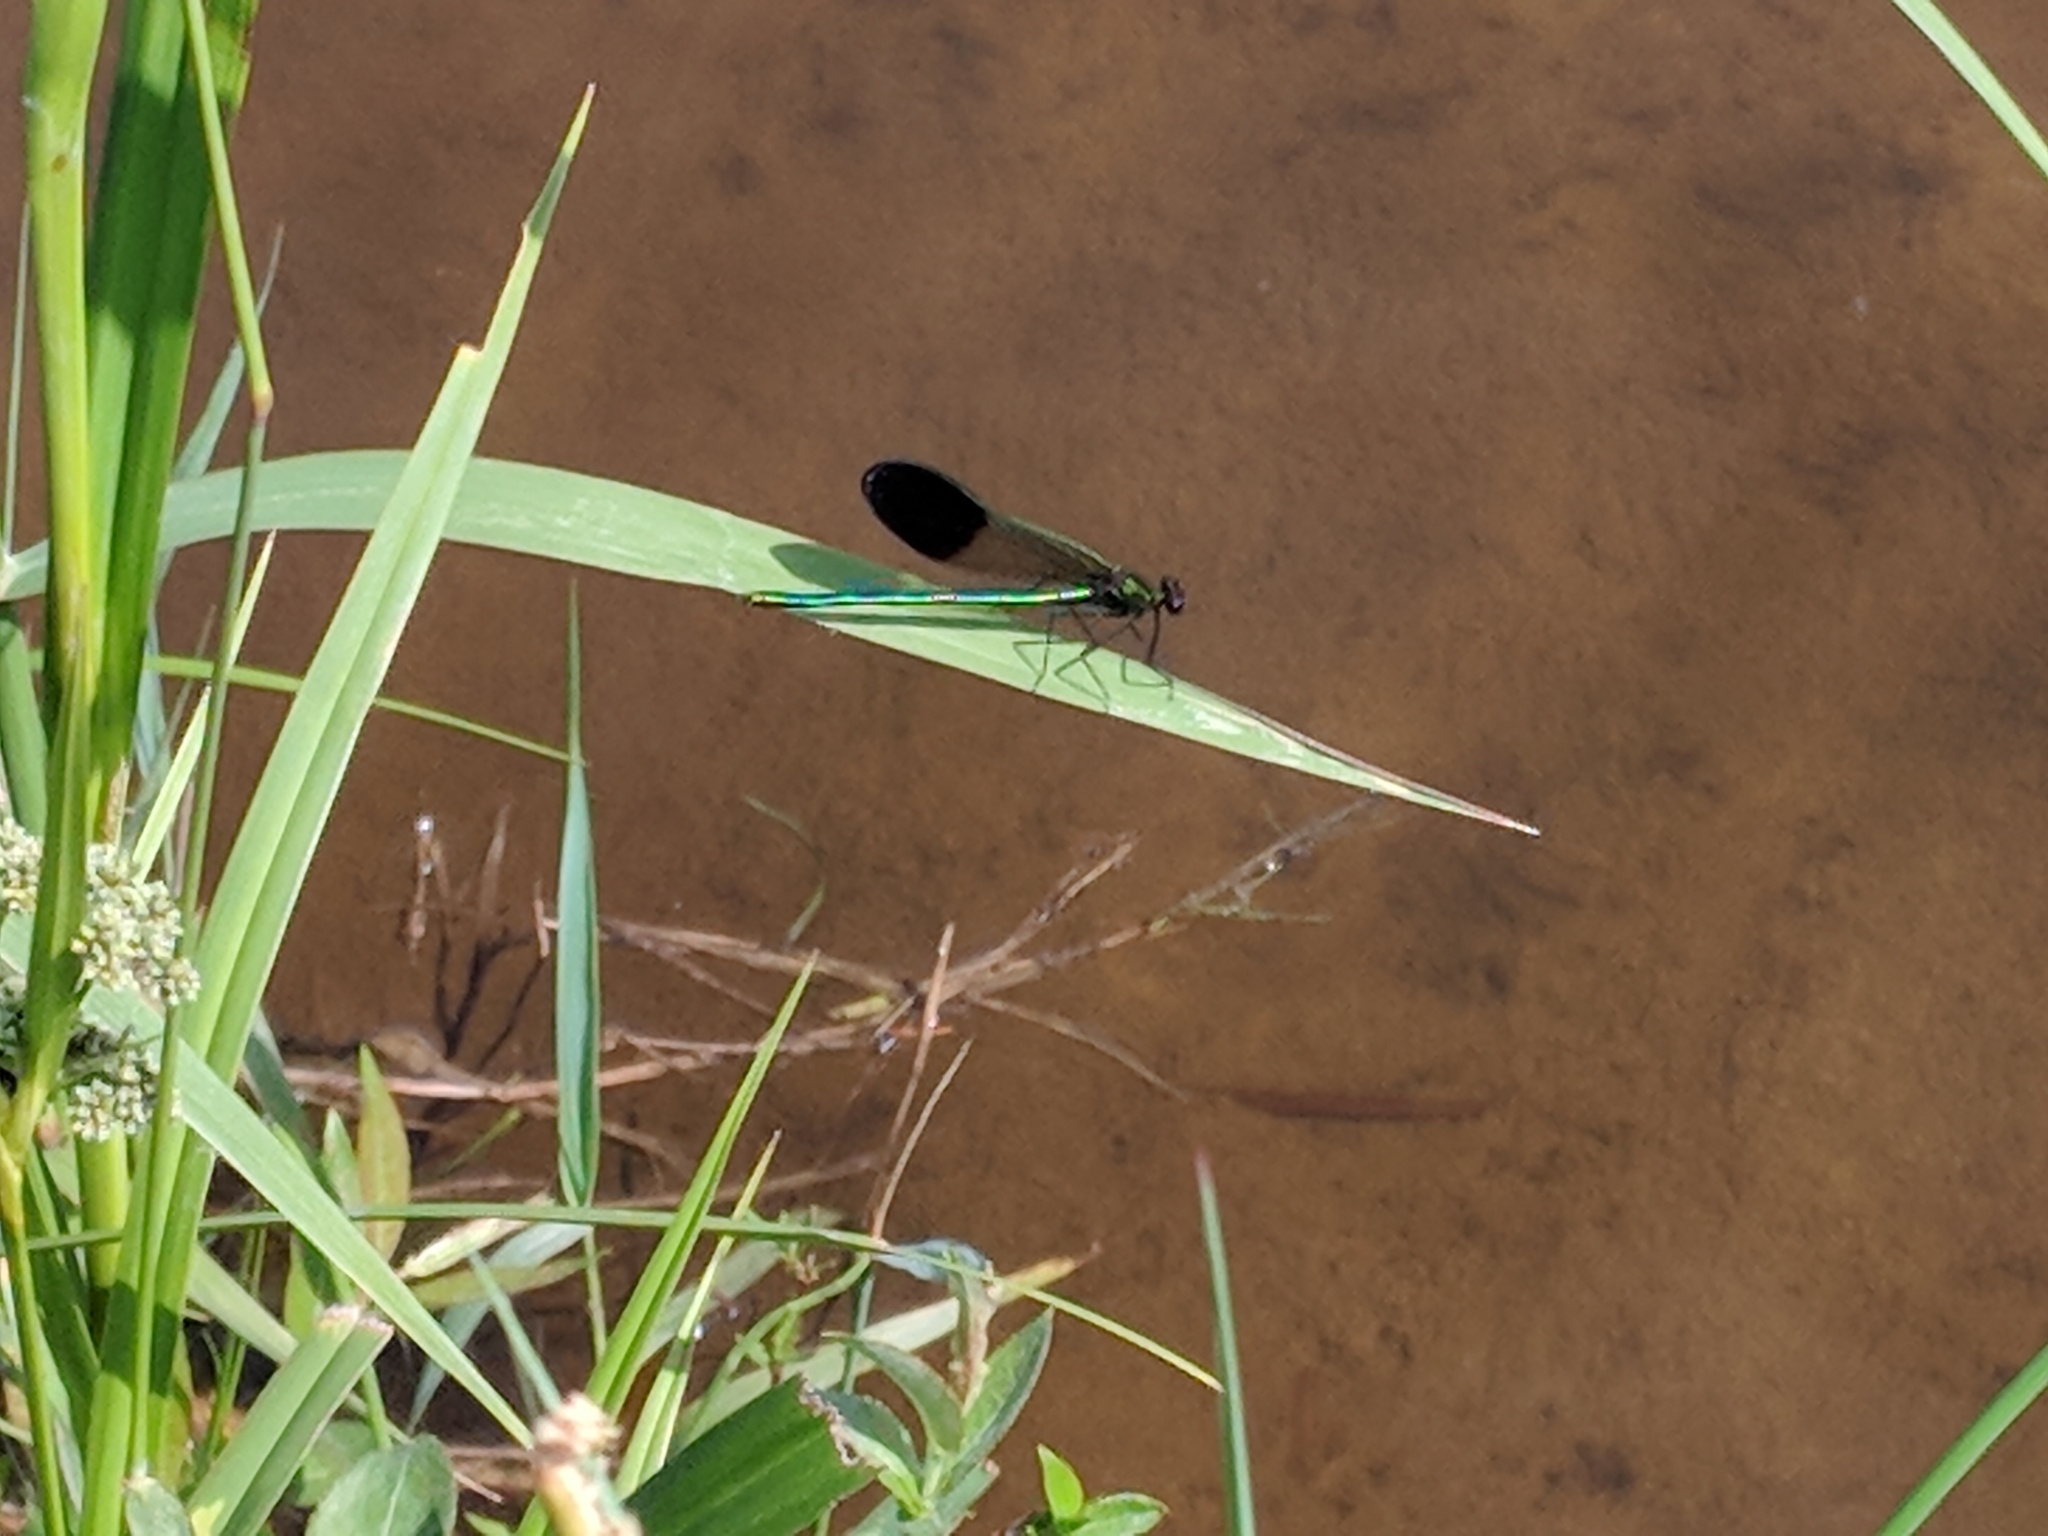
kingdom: Animalia
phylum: Arthropoda
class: Insecta
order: Odonata
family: Calopterygidae
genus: Calopteryx
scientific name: Calopteryx aequabilis
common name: River jewelwing
